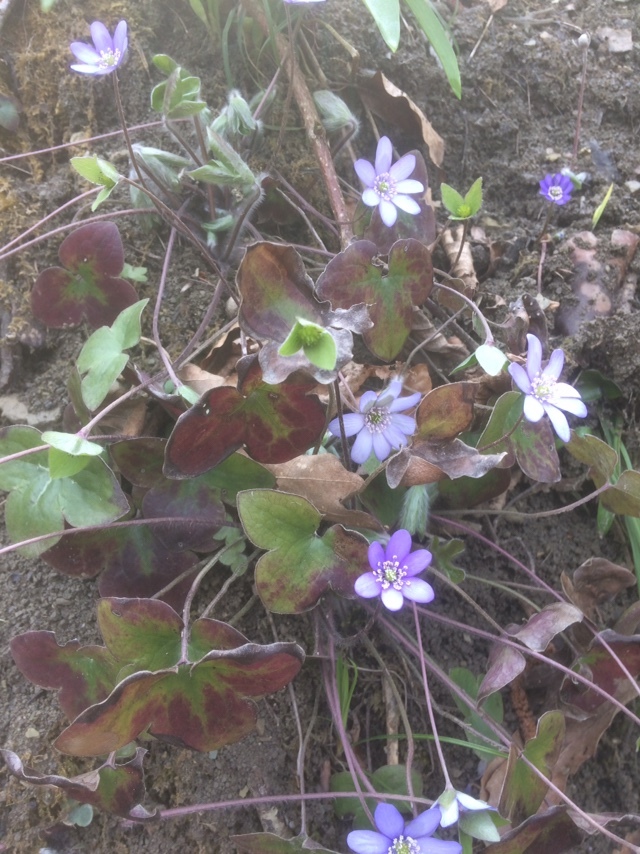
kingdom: Plantae
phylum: Tracheophyta
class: Magnoliopsida
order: Ranunculales
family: Ranunculaceae
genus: Hepatica
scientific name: Hepatica nobilis
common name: Liverleaf
